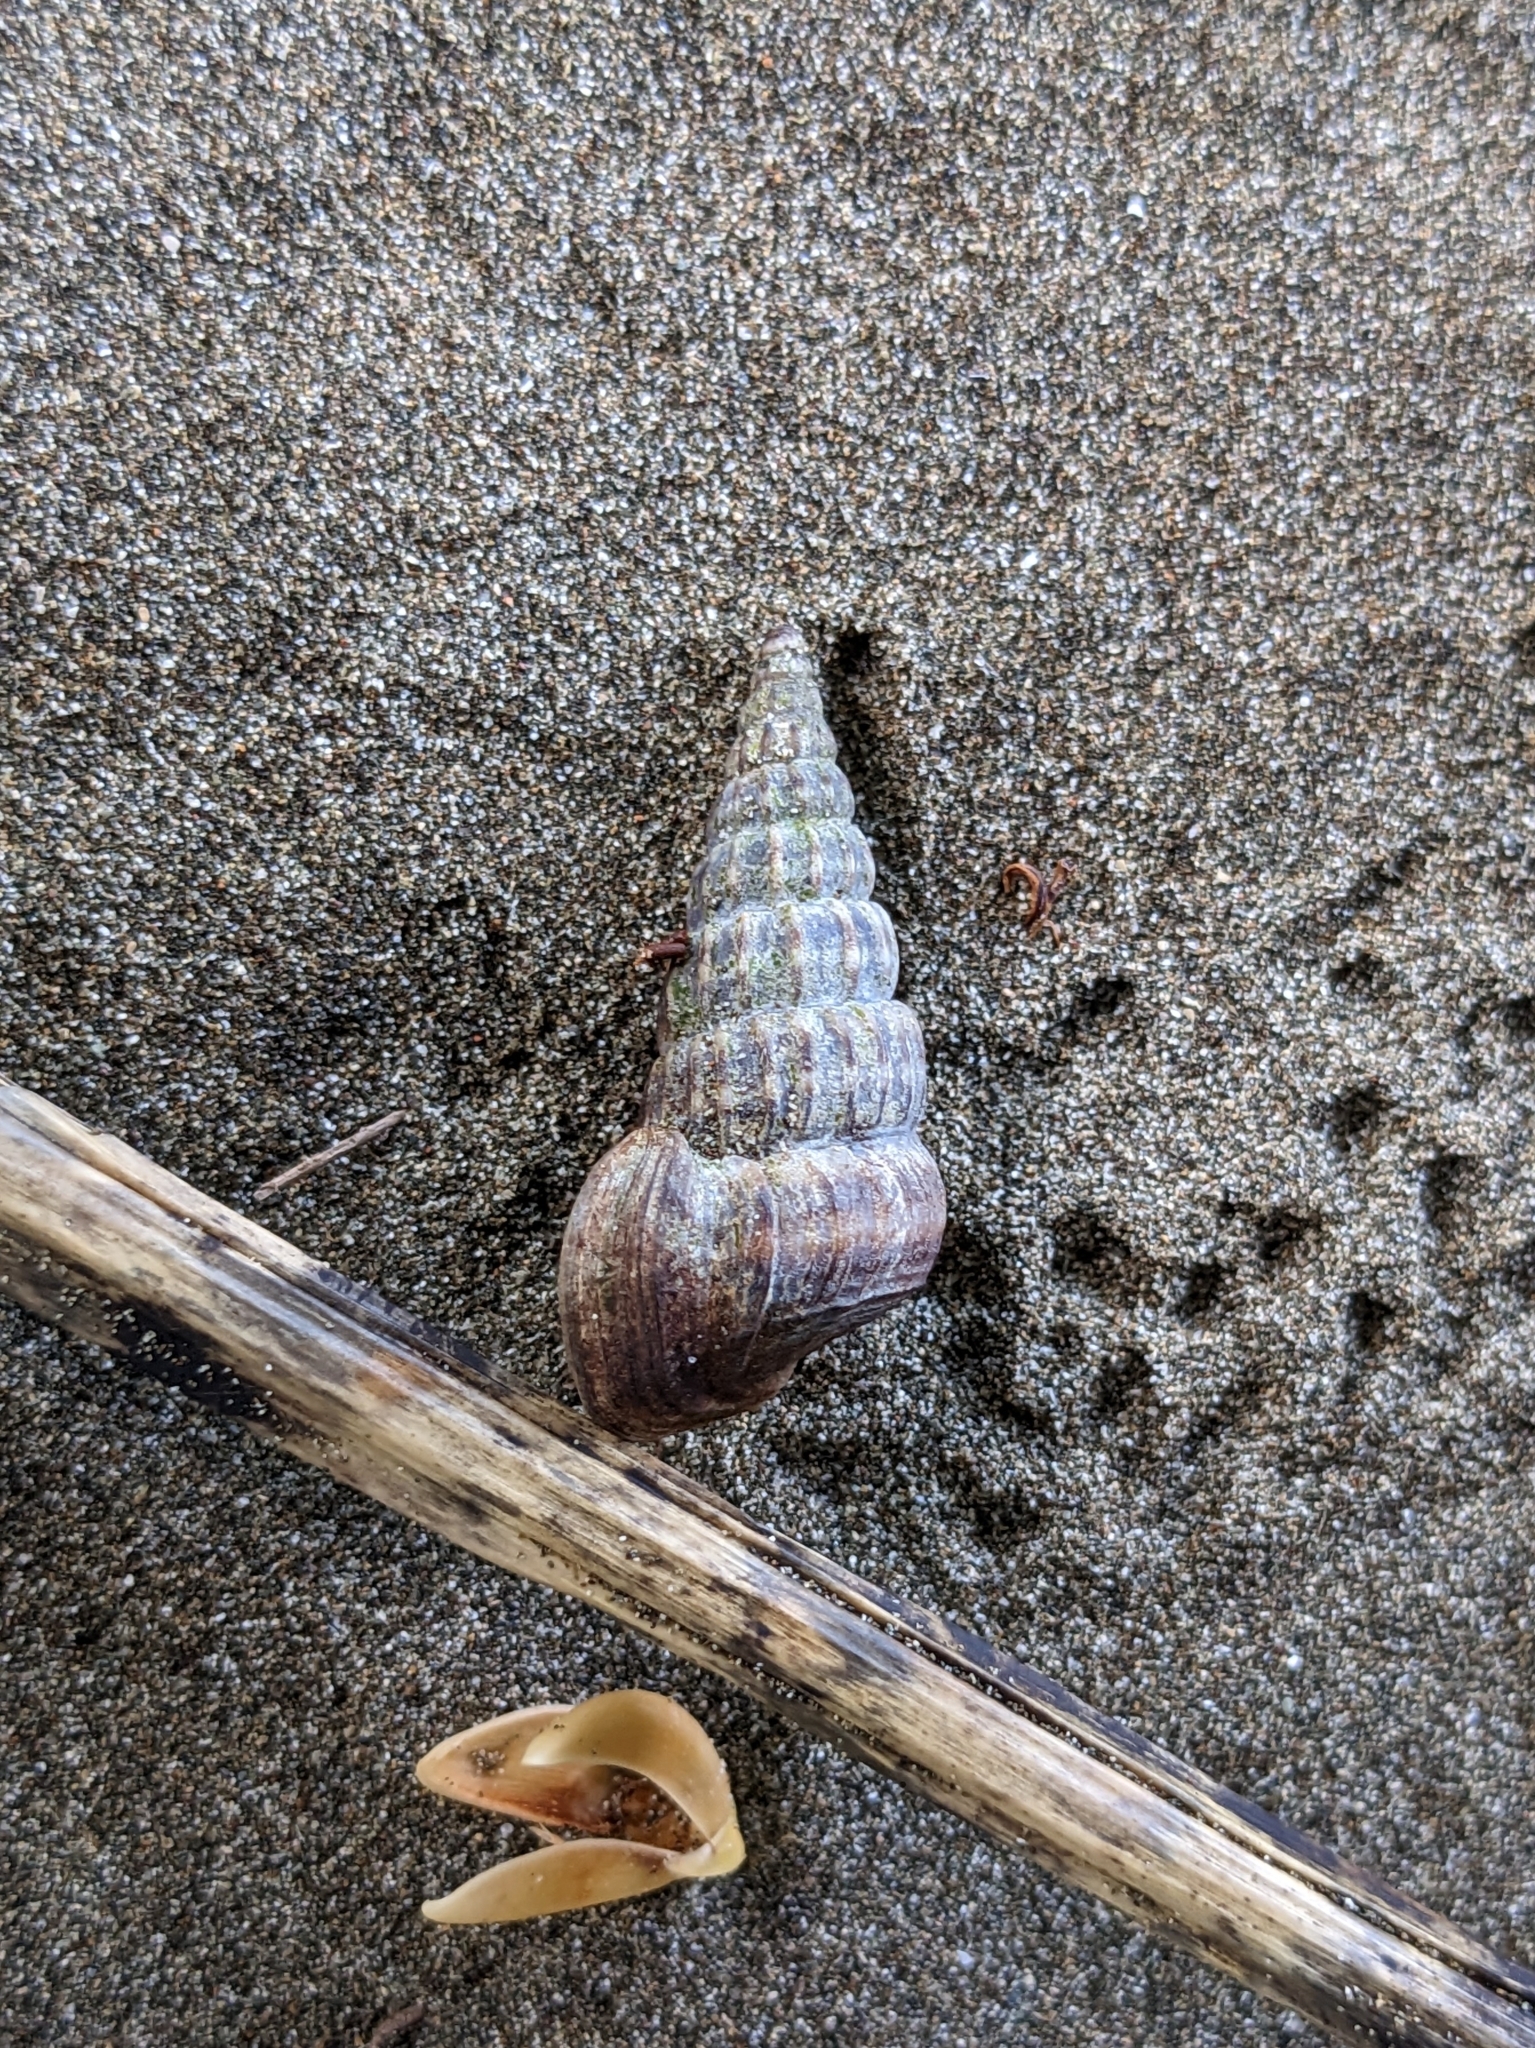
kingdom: Animalia
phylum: Arthropoda
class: Malacostraca
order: Decapoda
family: Coenobitidae
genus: Coenobita
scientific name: Coenobita compressus
